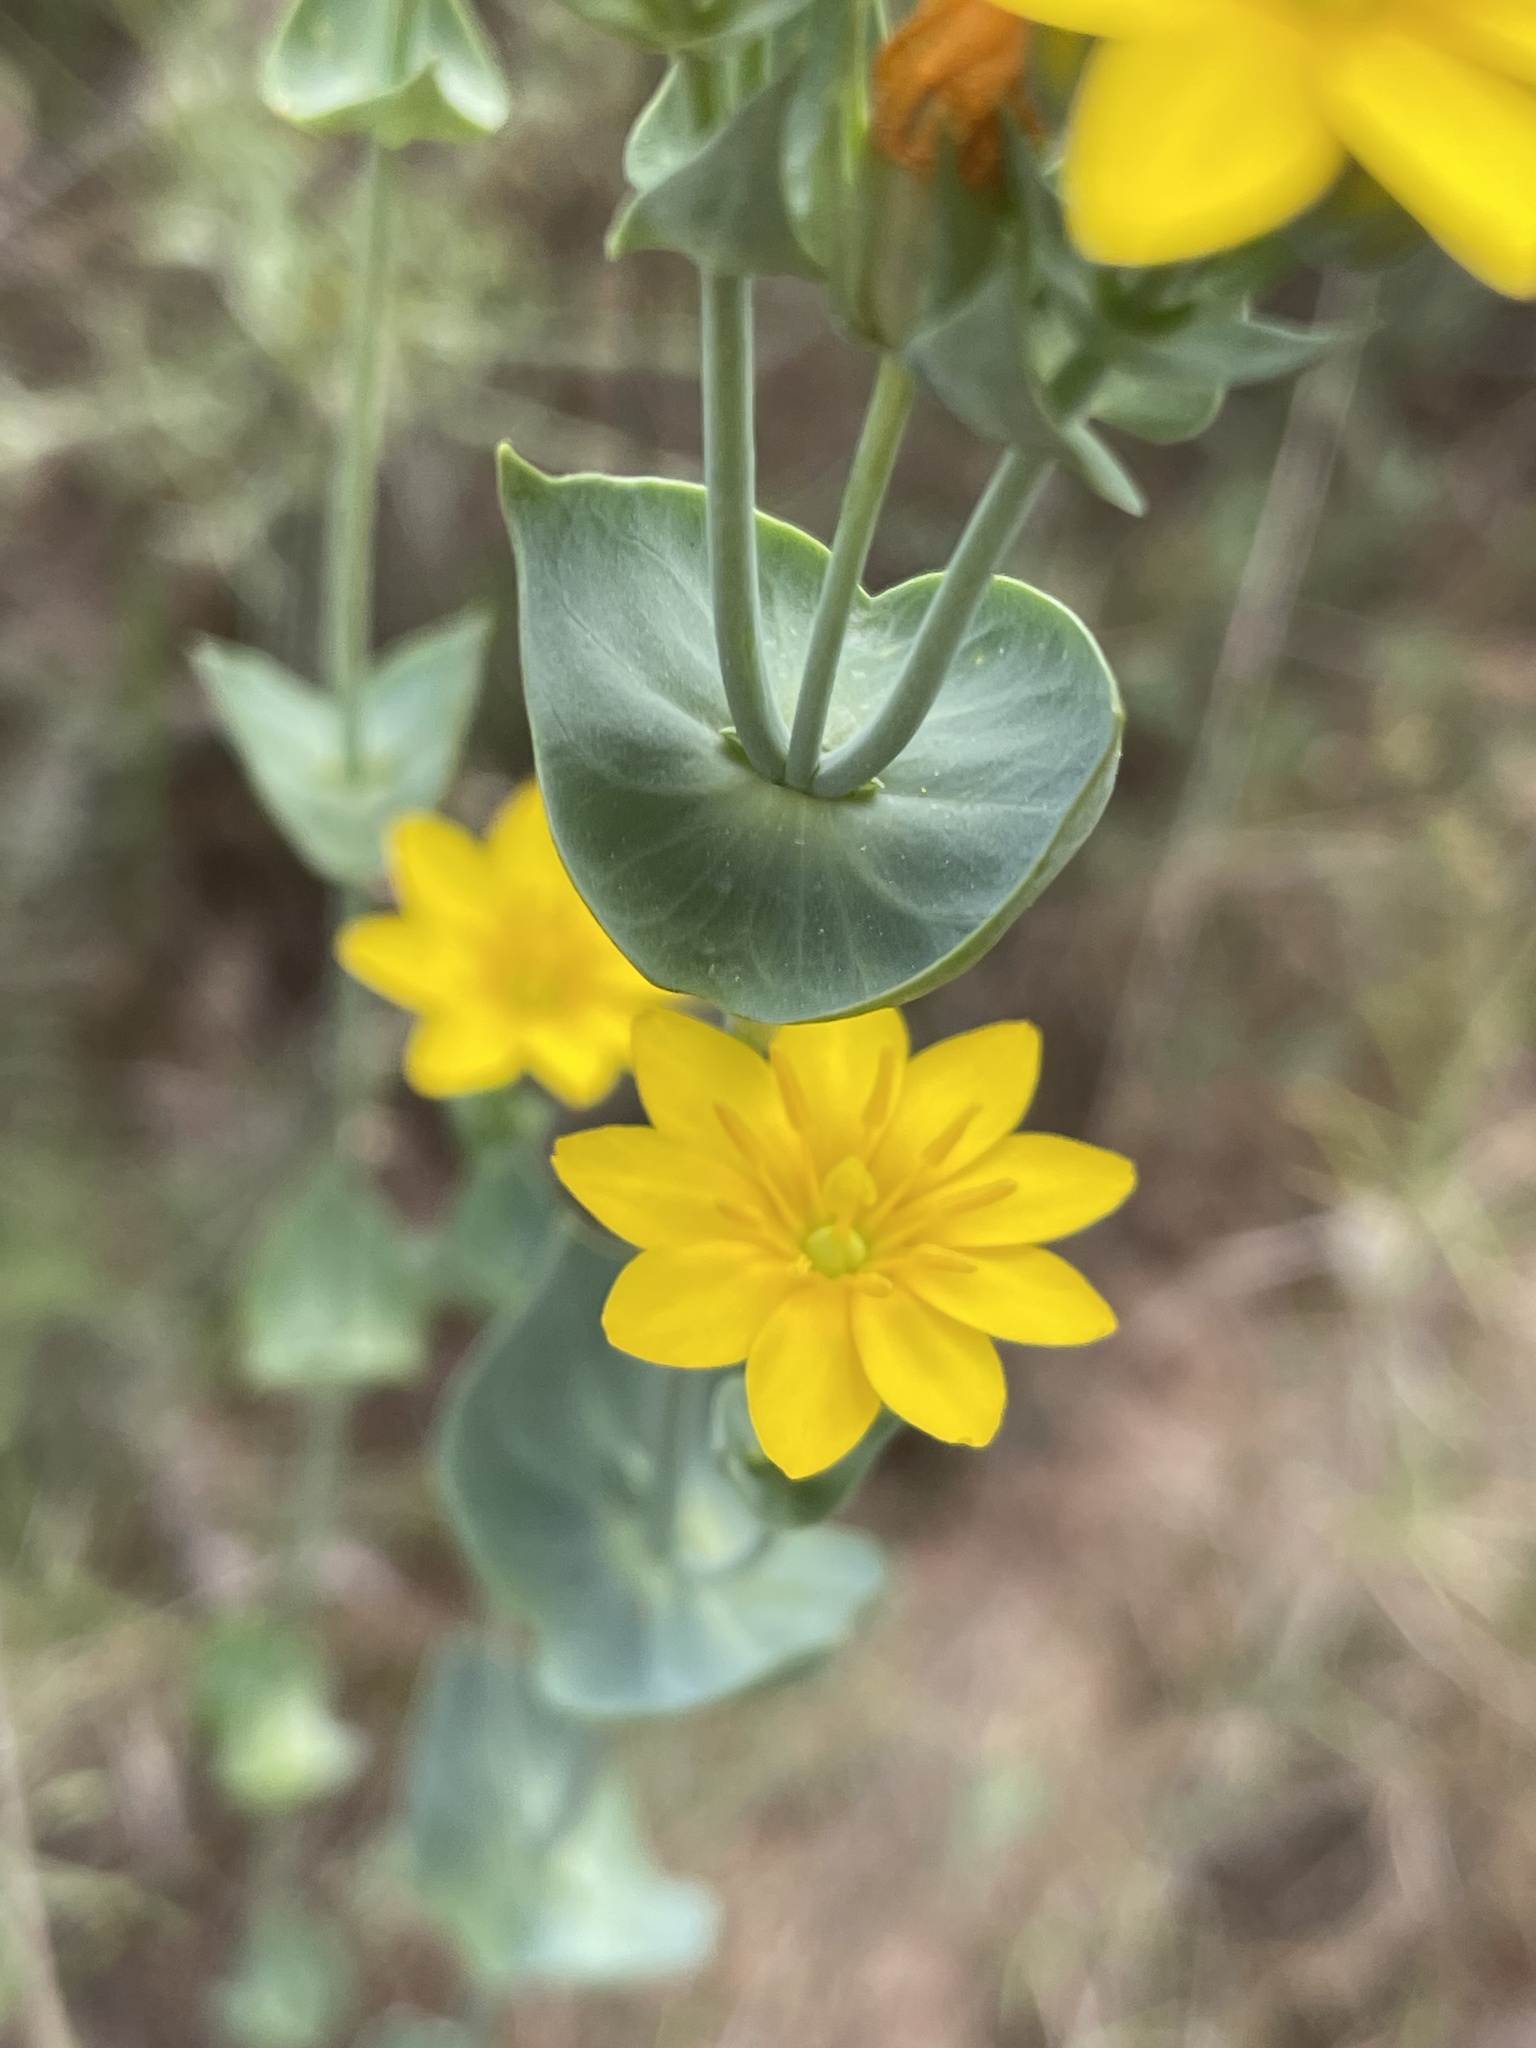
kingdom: Plantae
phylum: Tracheophyta
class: Magnoliopsida
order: Gentianales
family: Gentianaceae
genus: Blackstonia
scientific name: Blackstonia perfoliata
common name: Yellow-wort
